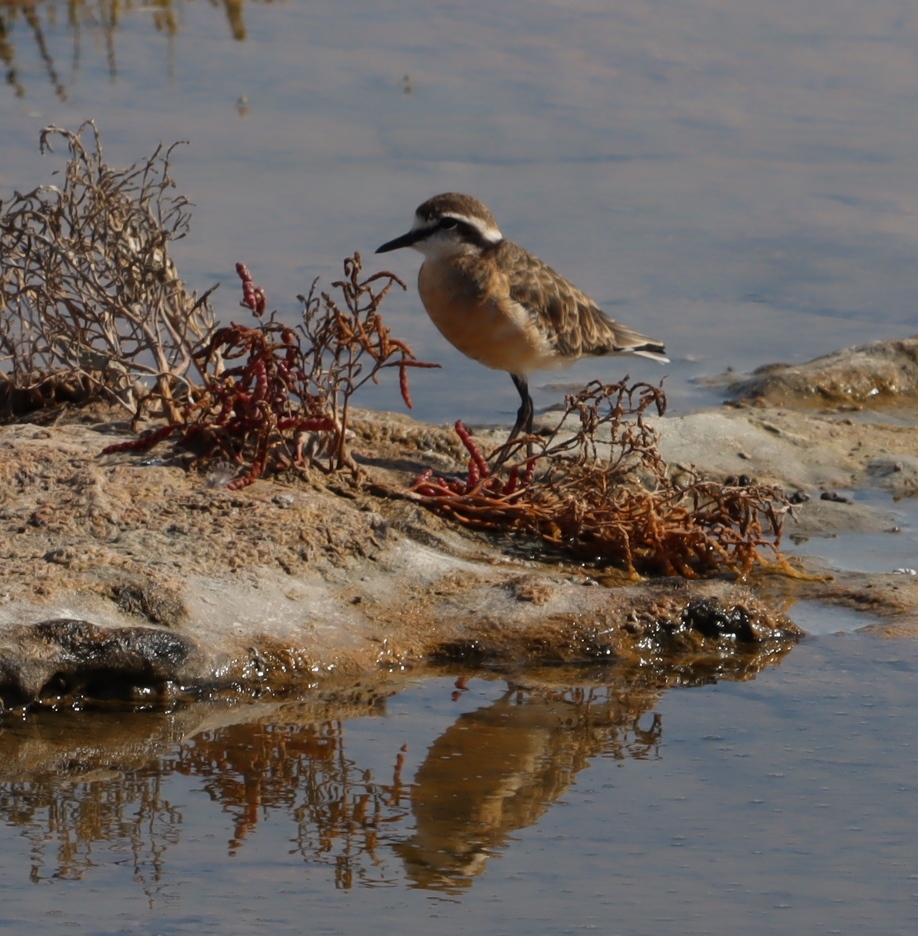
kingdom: Animalia
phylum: Chordata
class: Aves
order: Charadriiformes
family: Charadriidae
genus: Anarhynchus
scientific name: Anarhynchus
